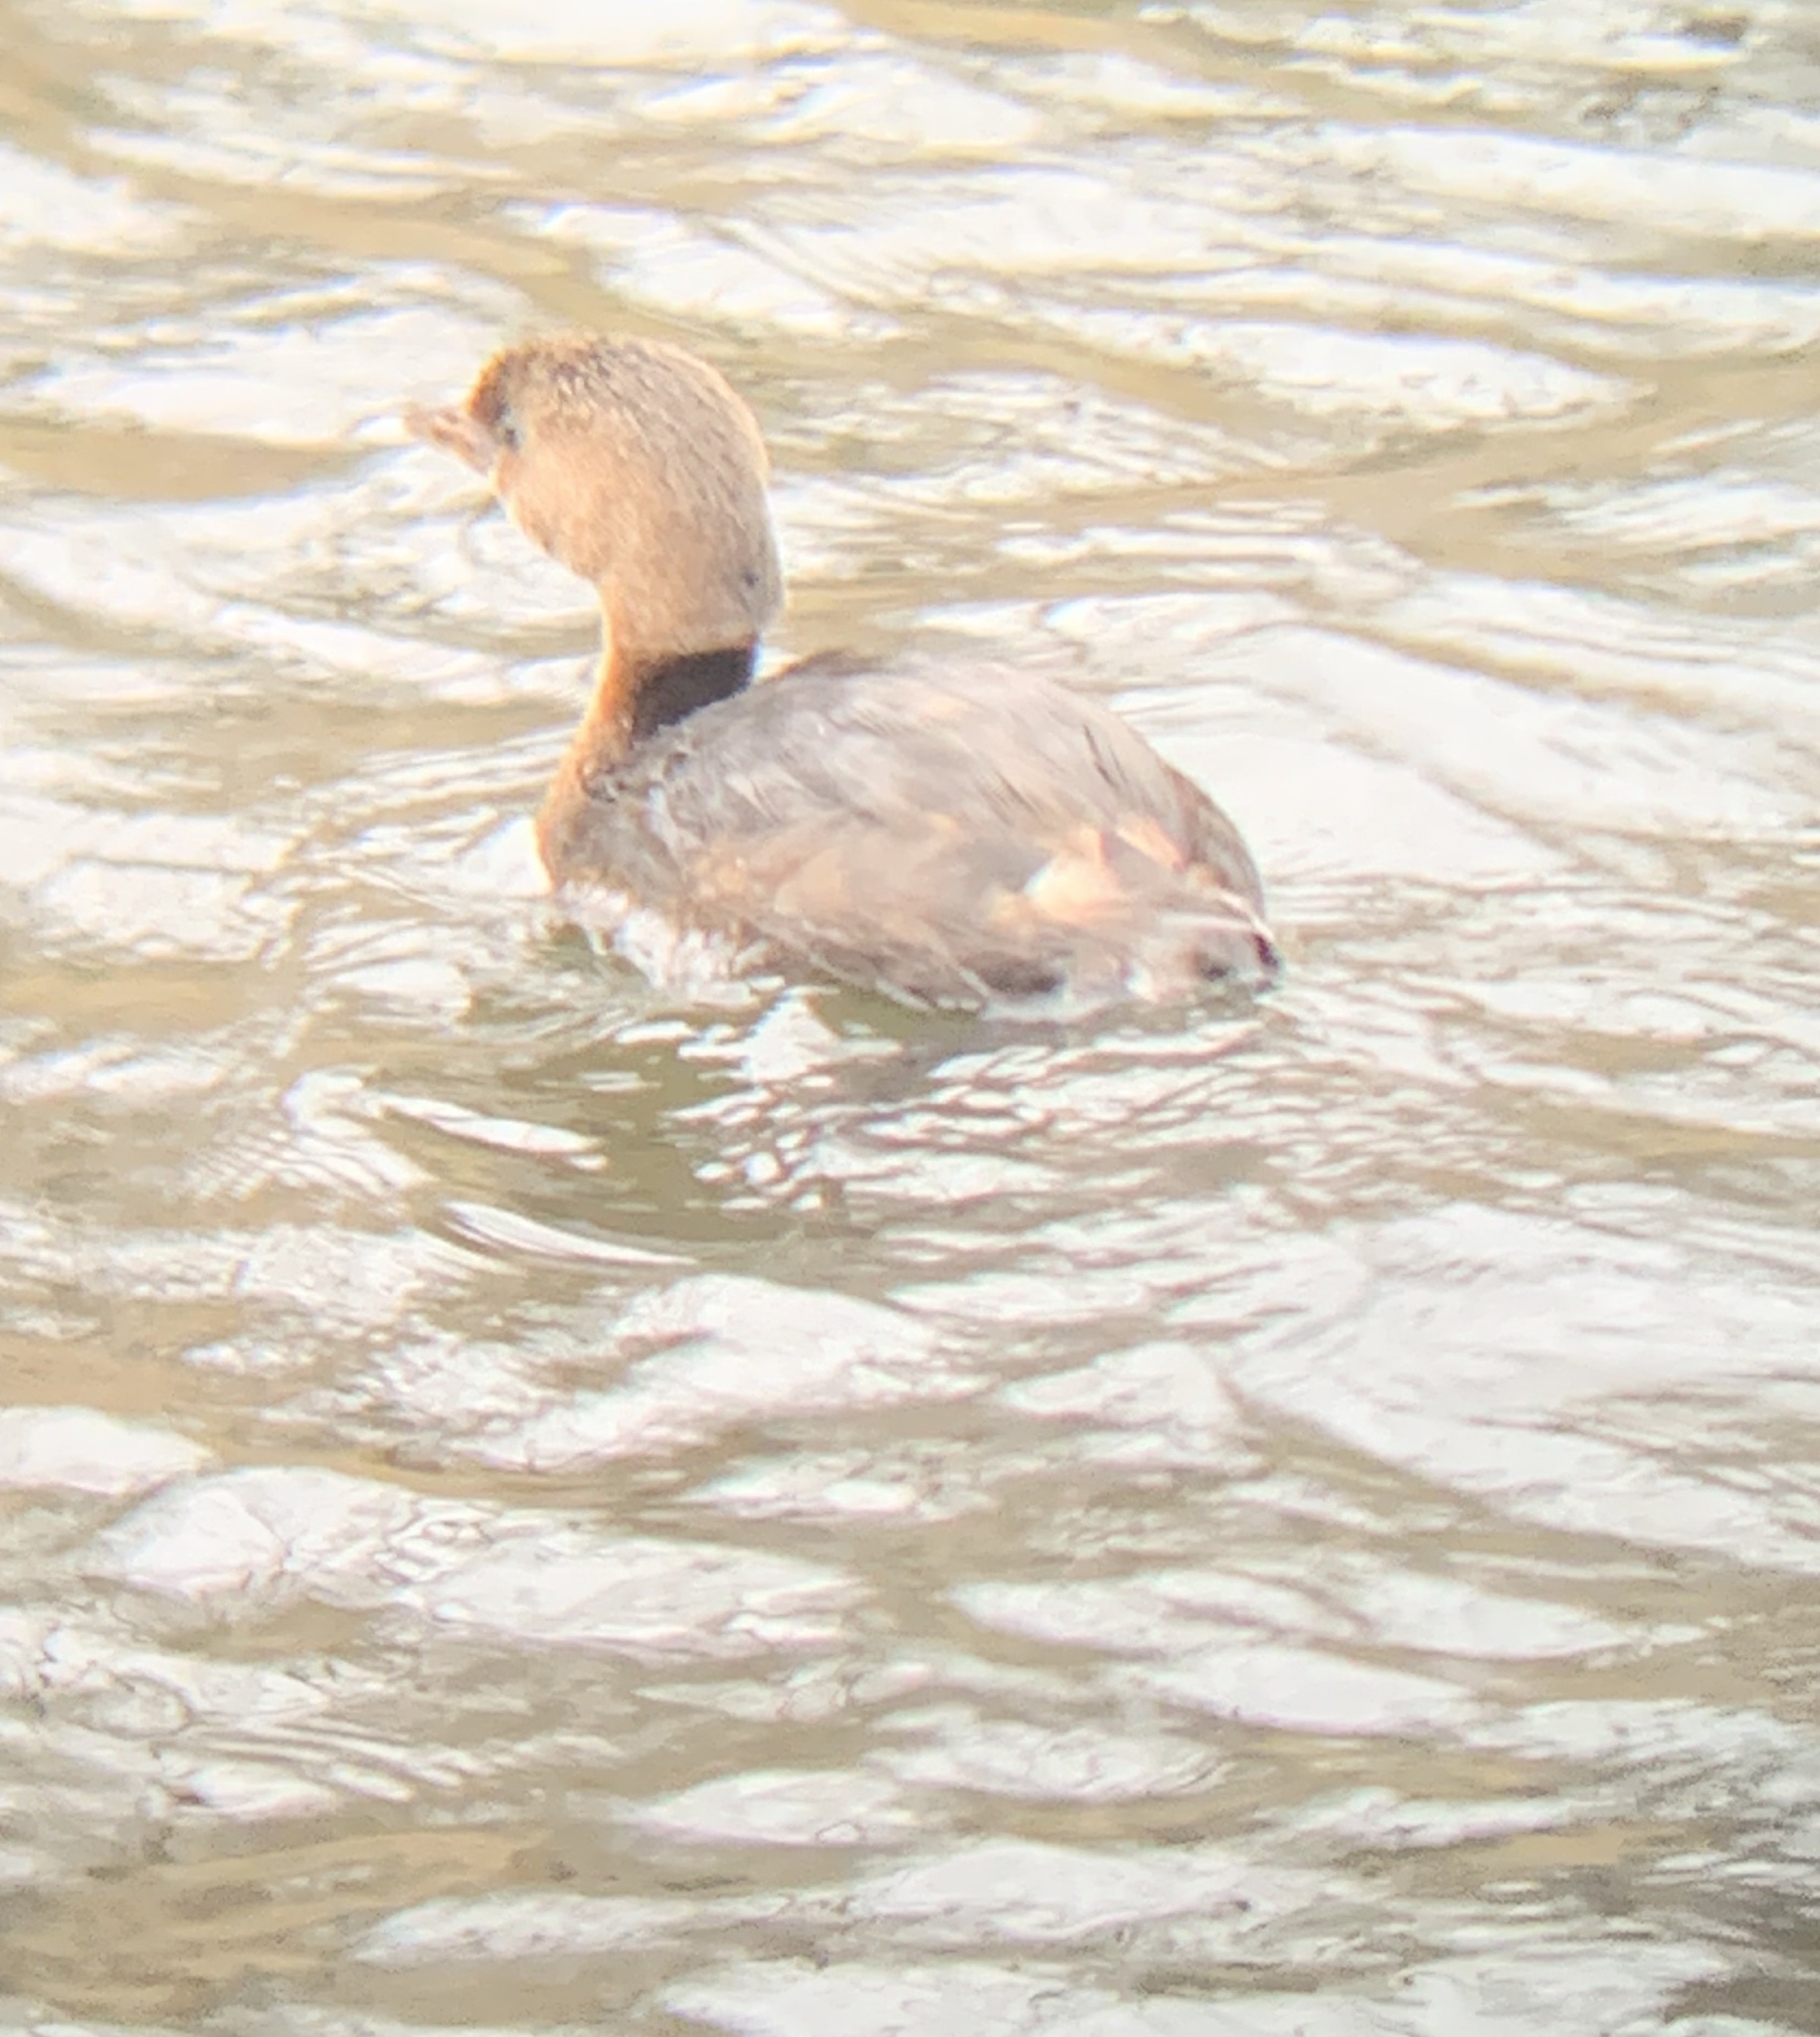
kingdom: Animalia
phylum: Chordata
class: Aves
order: Podicipediformes
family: Podicipedidae
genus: Podilymbus
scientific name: Podilymbus podiceps
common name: Pied-billed grebe
